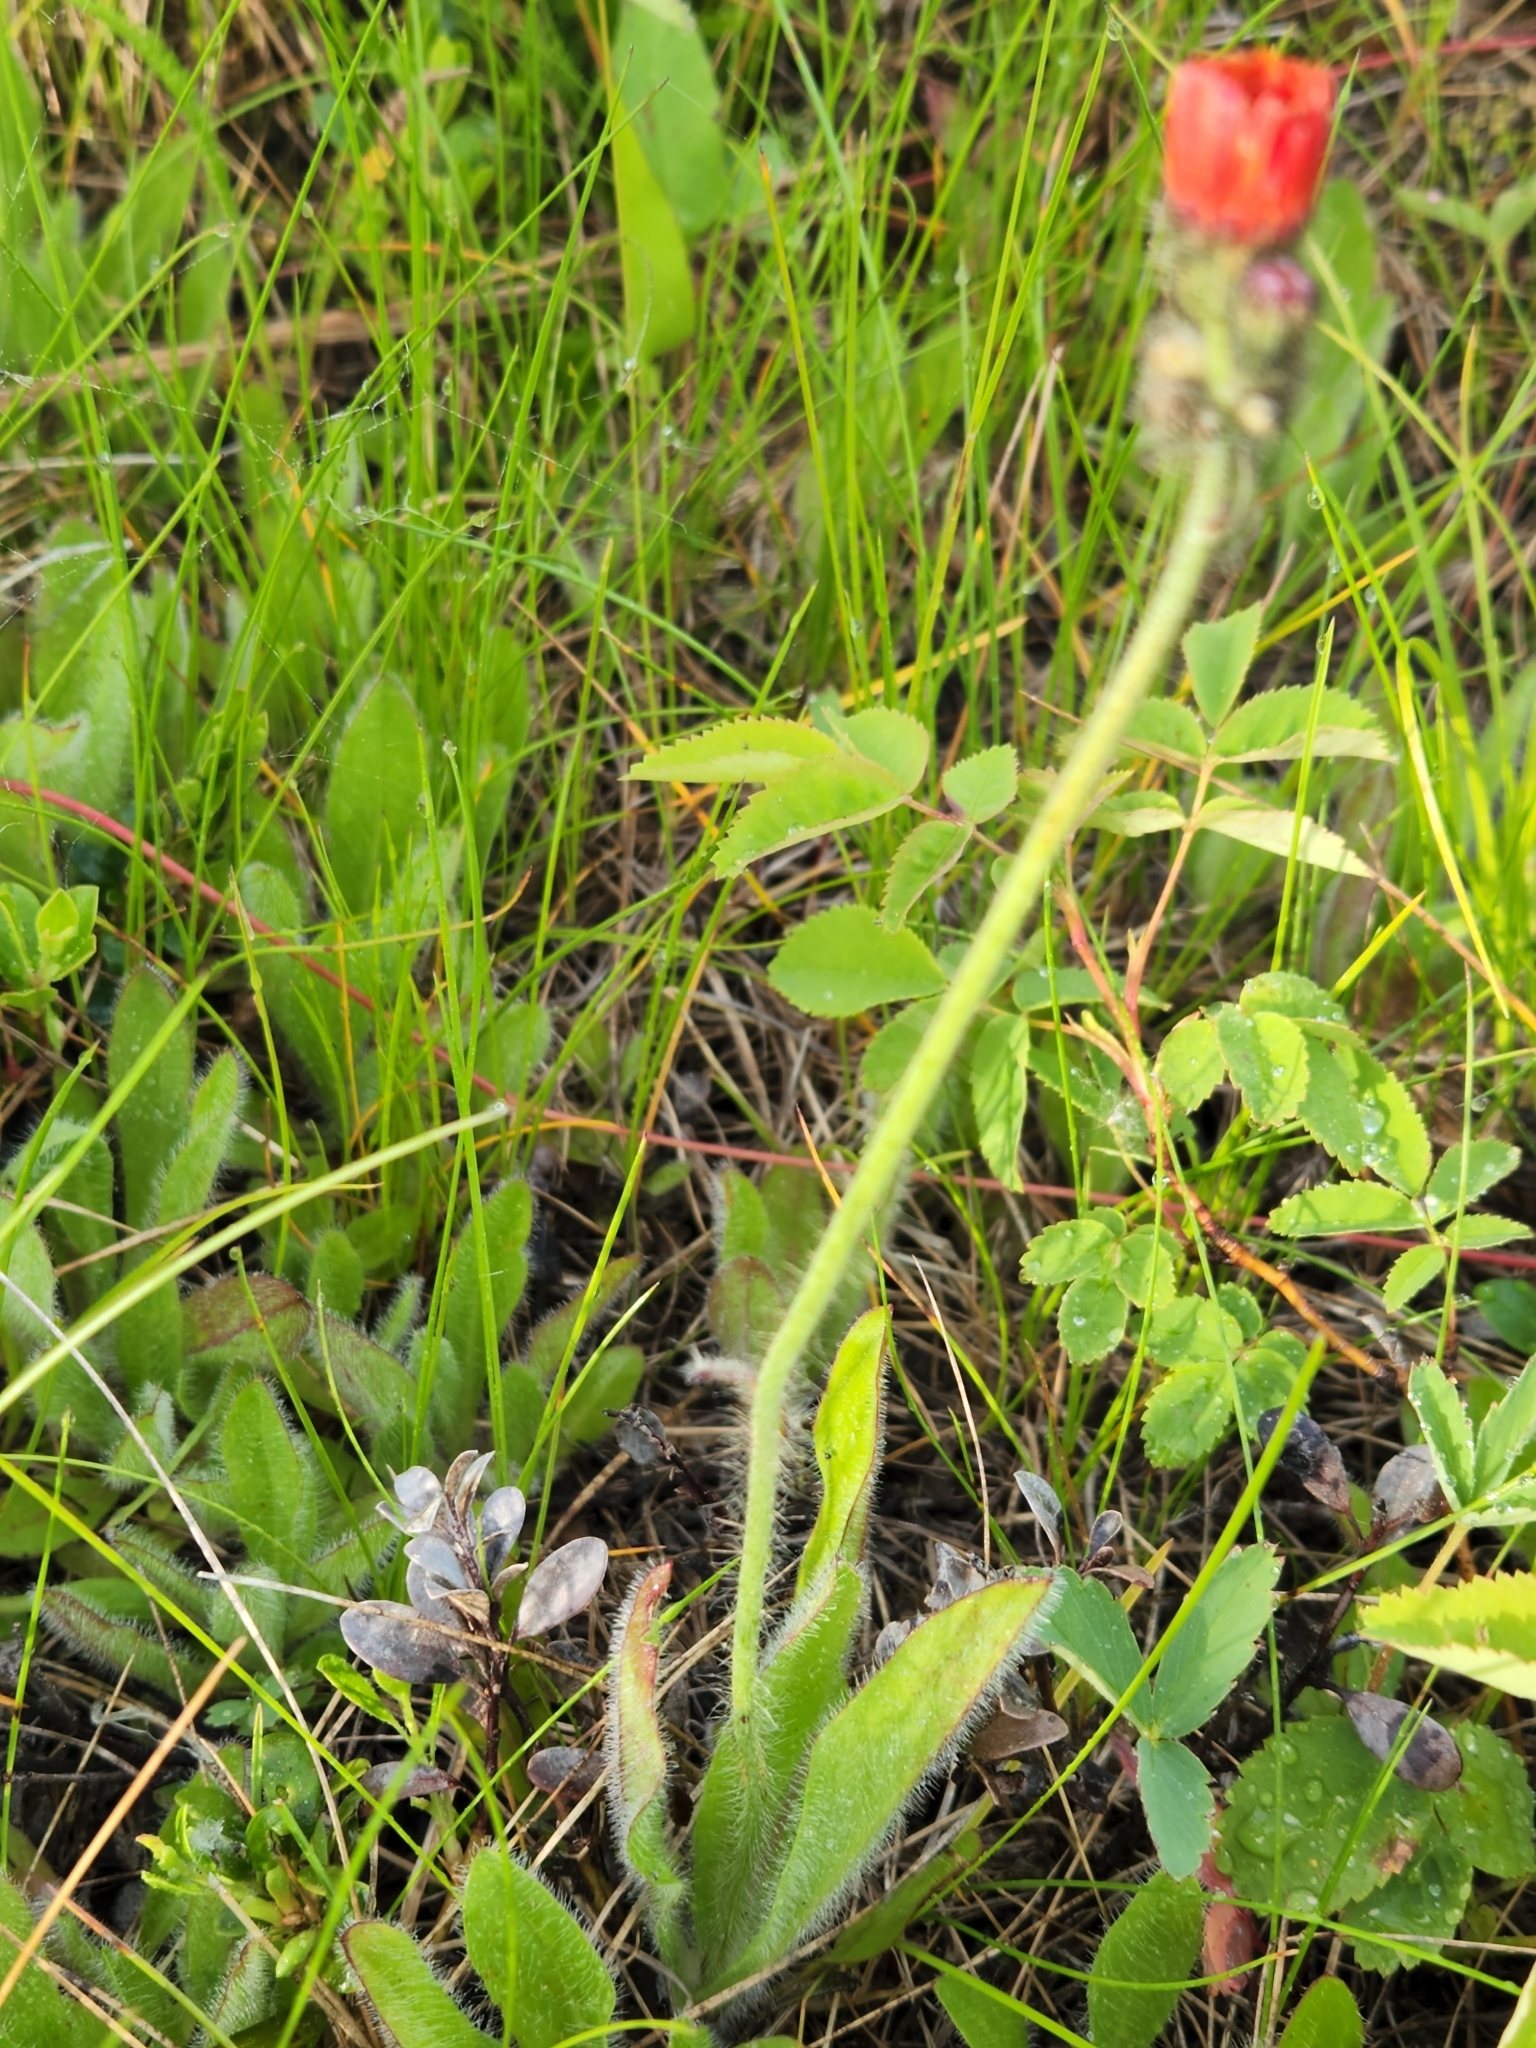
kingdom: Plantae
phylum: Tracheophyta
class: Magnoliopsida
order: Asterales
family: Asteraceae
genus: Pilosella
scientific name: Pilosella aurantiaca
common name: Fox-and-cubs
